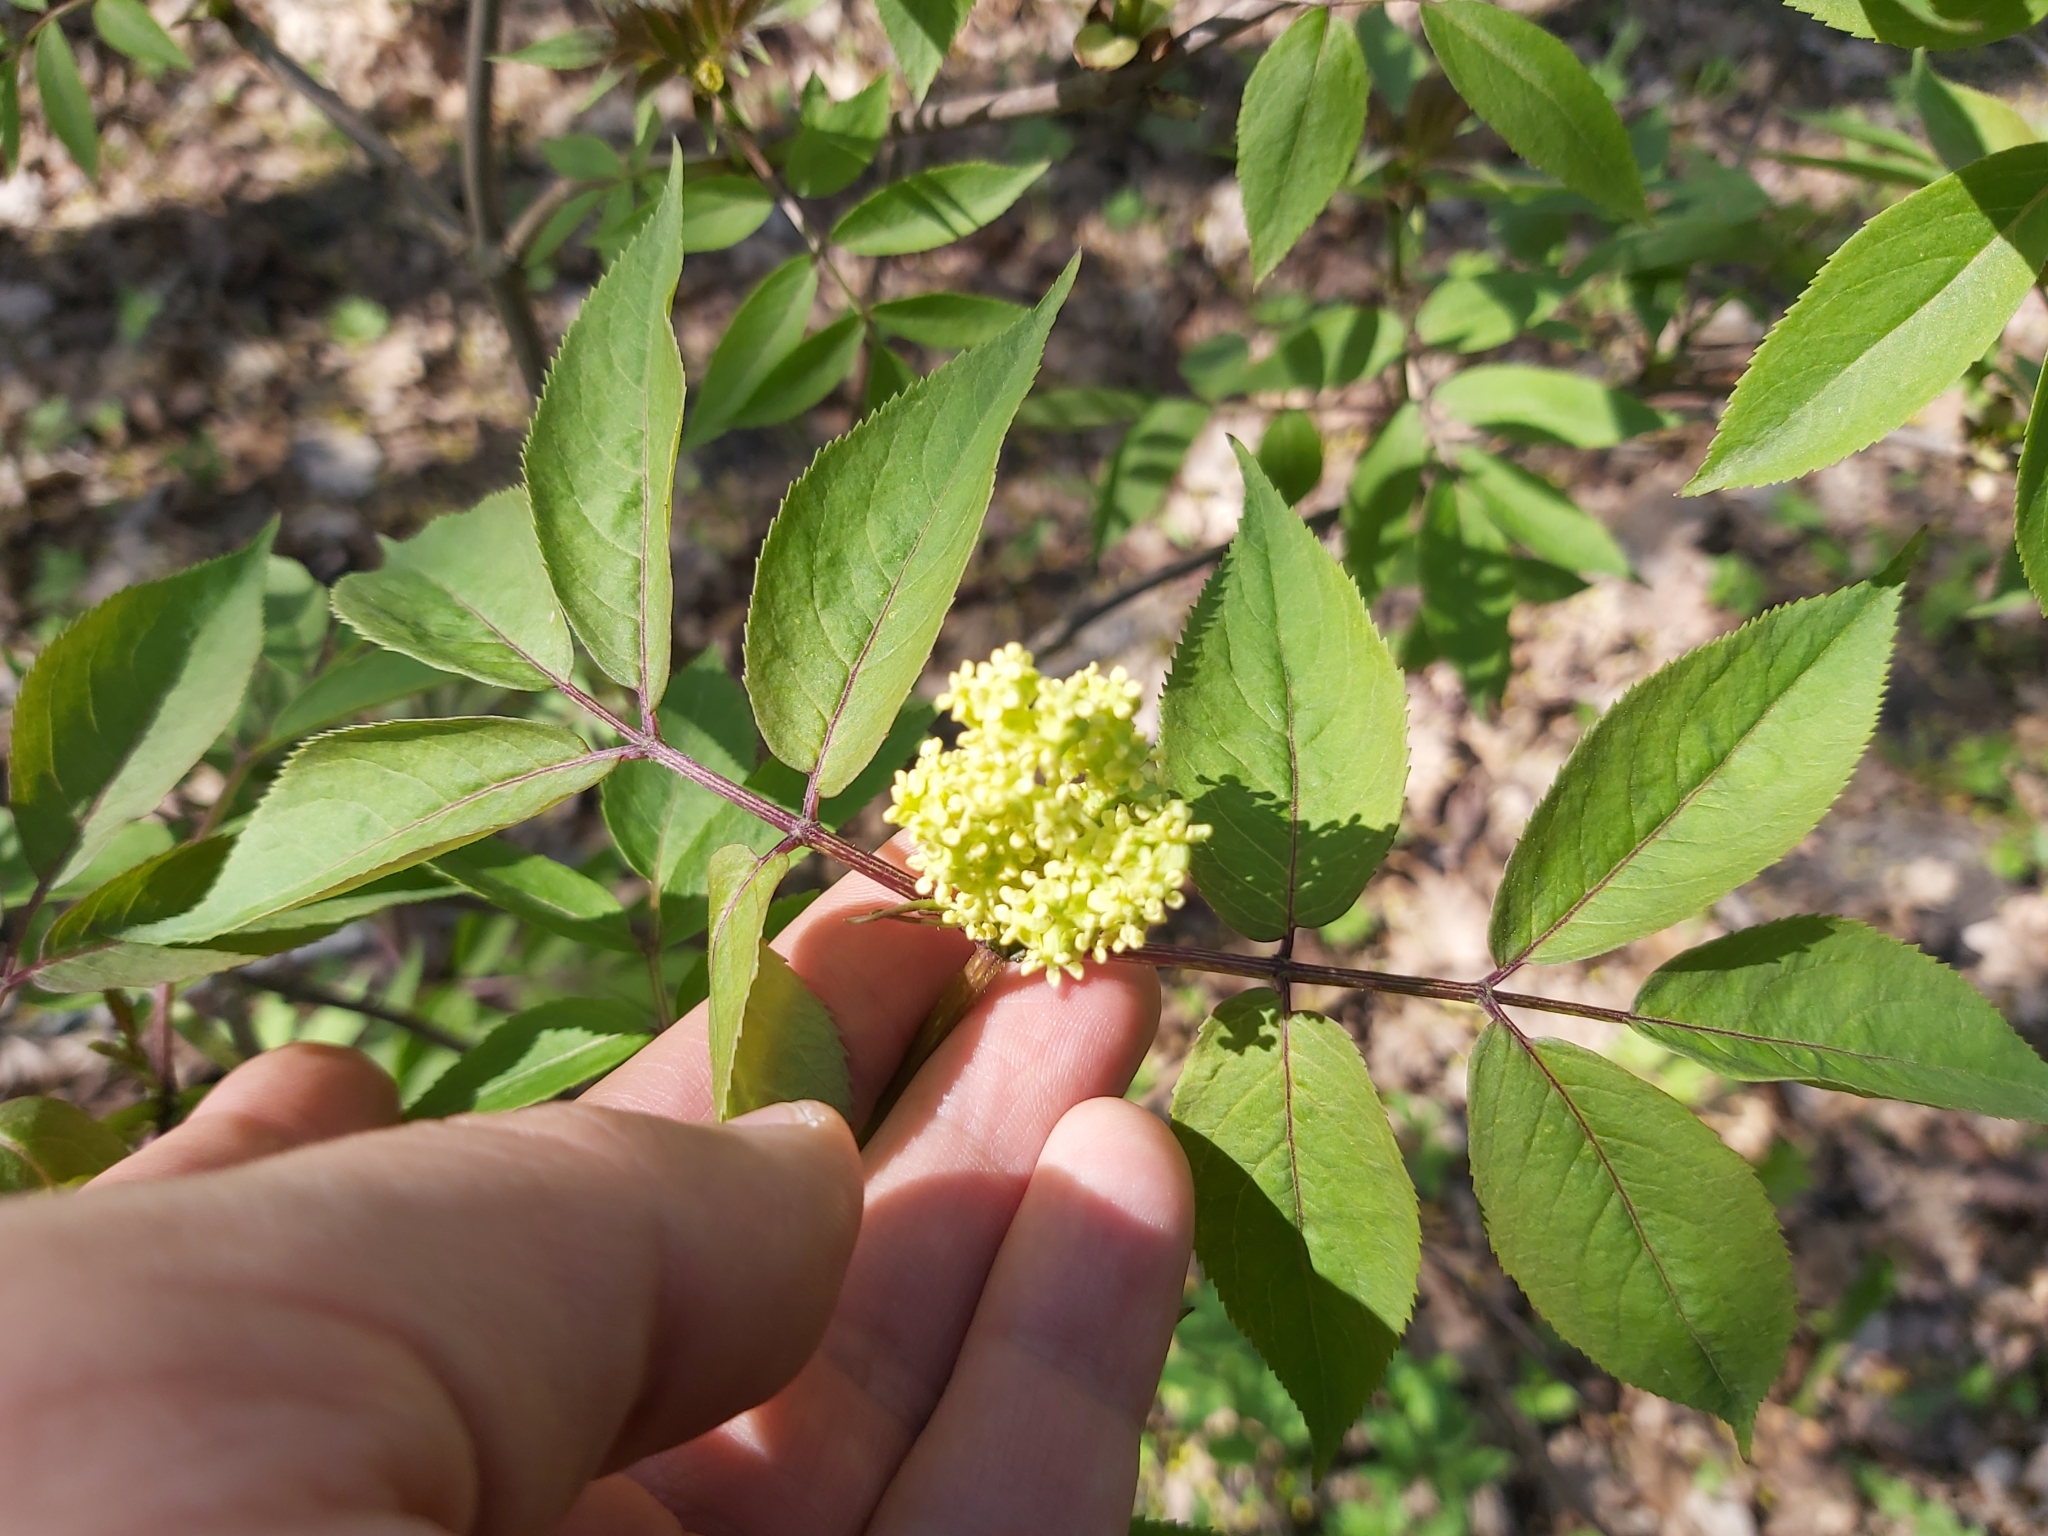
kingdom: Plantae
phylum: Tracheophyta
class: Magnoliopsida
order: Dipsacales
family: Viburnaceae
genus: Sambucus
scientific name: Sambucus racemosa
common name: Red-berried elder
